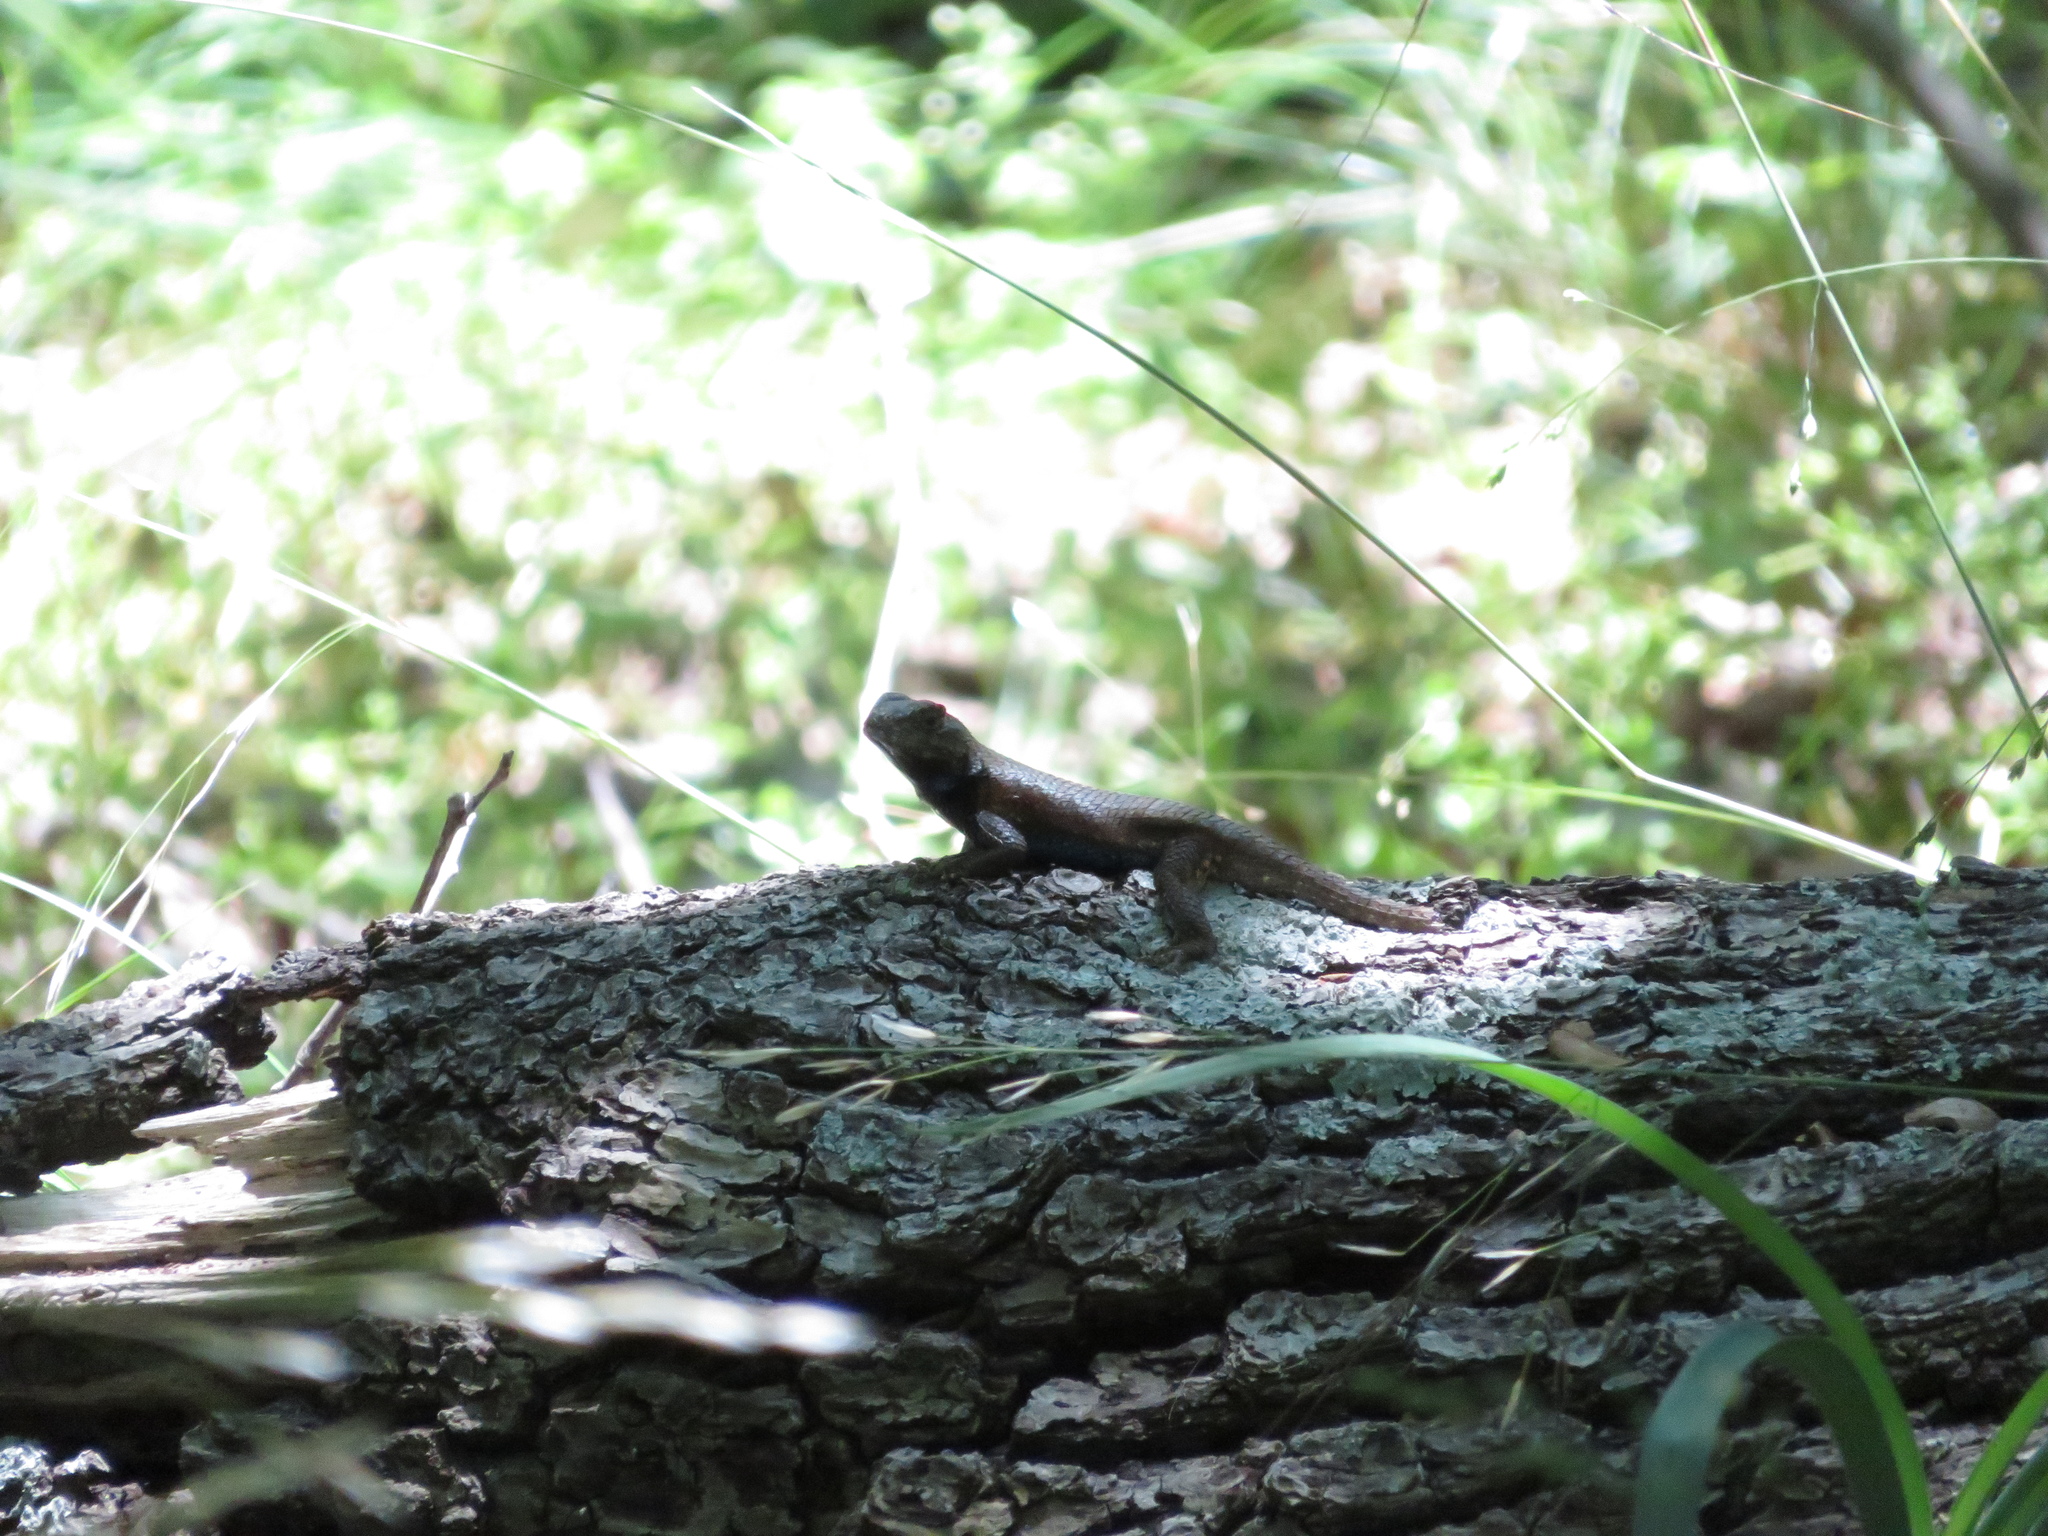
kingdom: Animalia
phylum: Chordata
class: Squamata
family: Phrynosomatidae
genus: Sceloporus
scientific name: Sceloporus undulatus
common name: Eastern fence lizard
